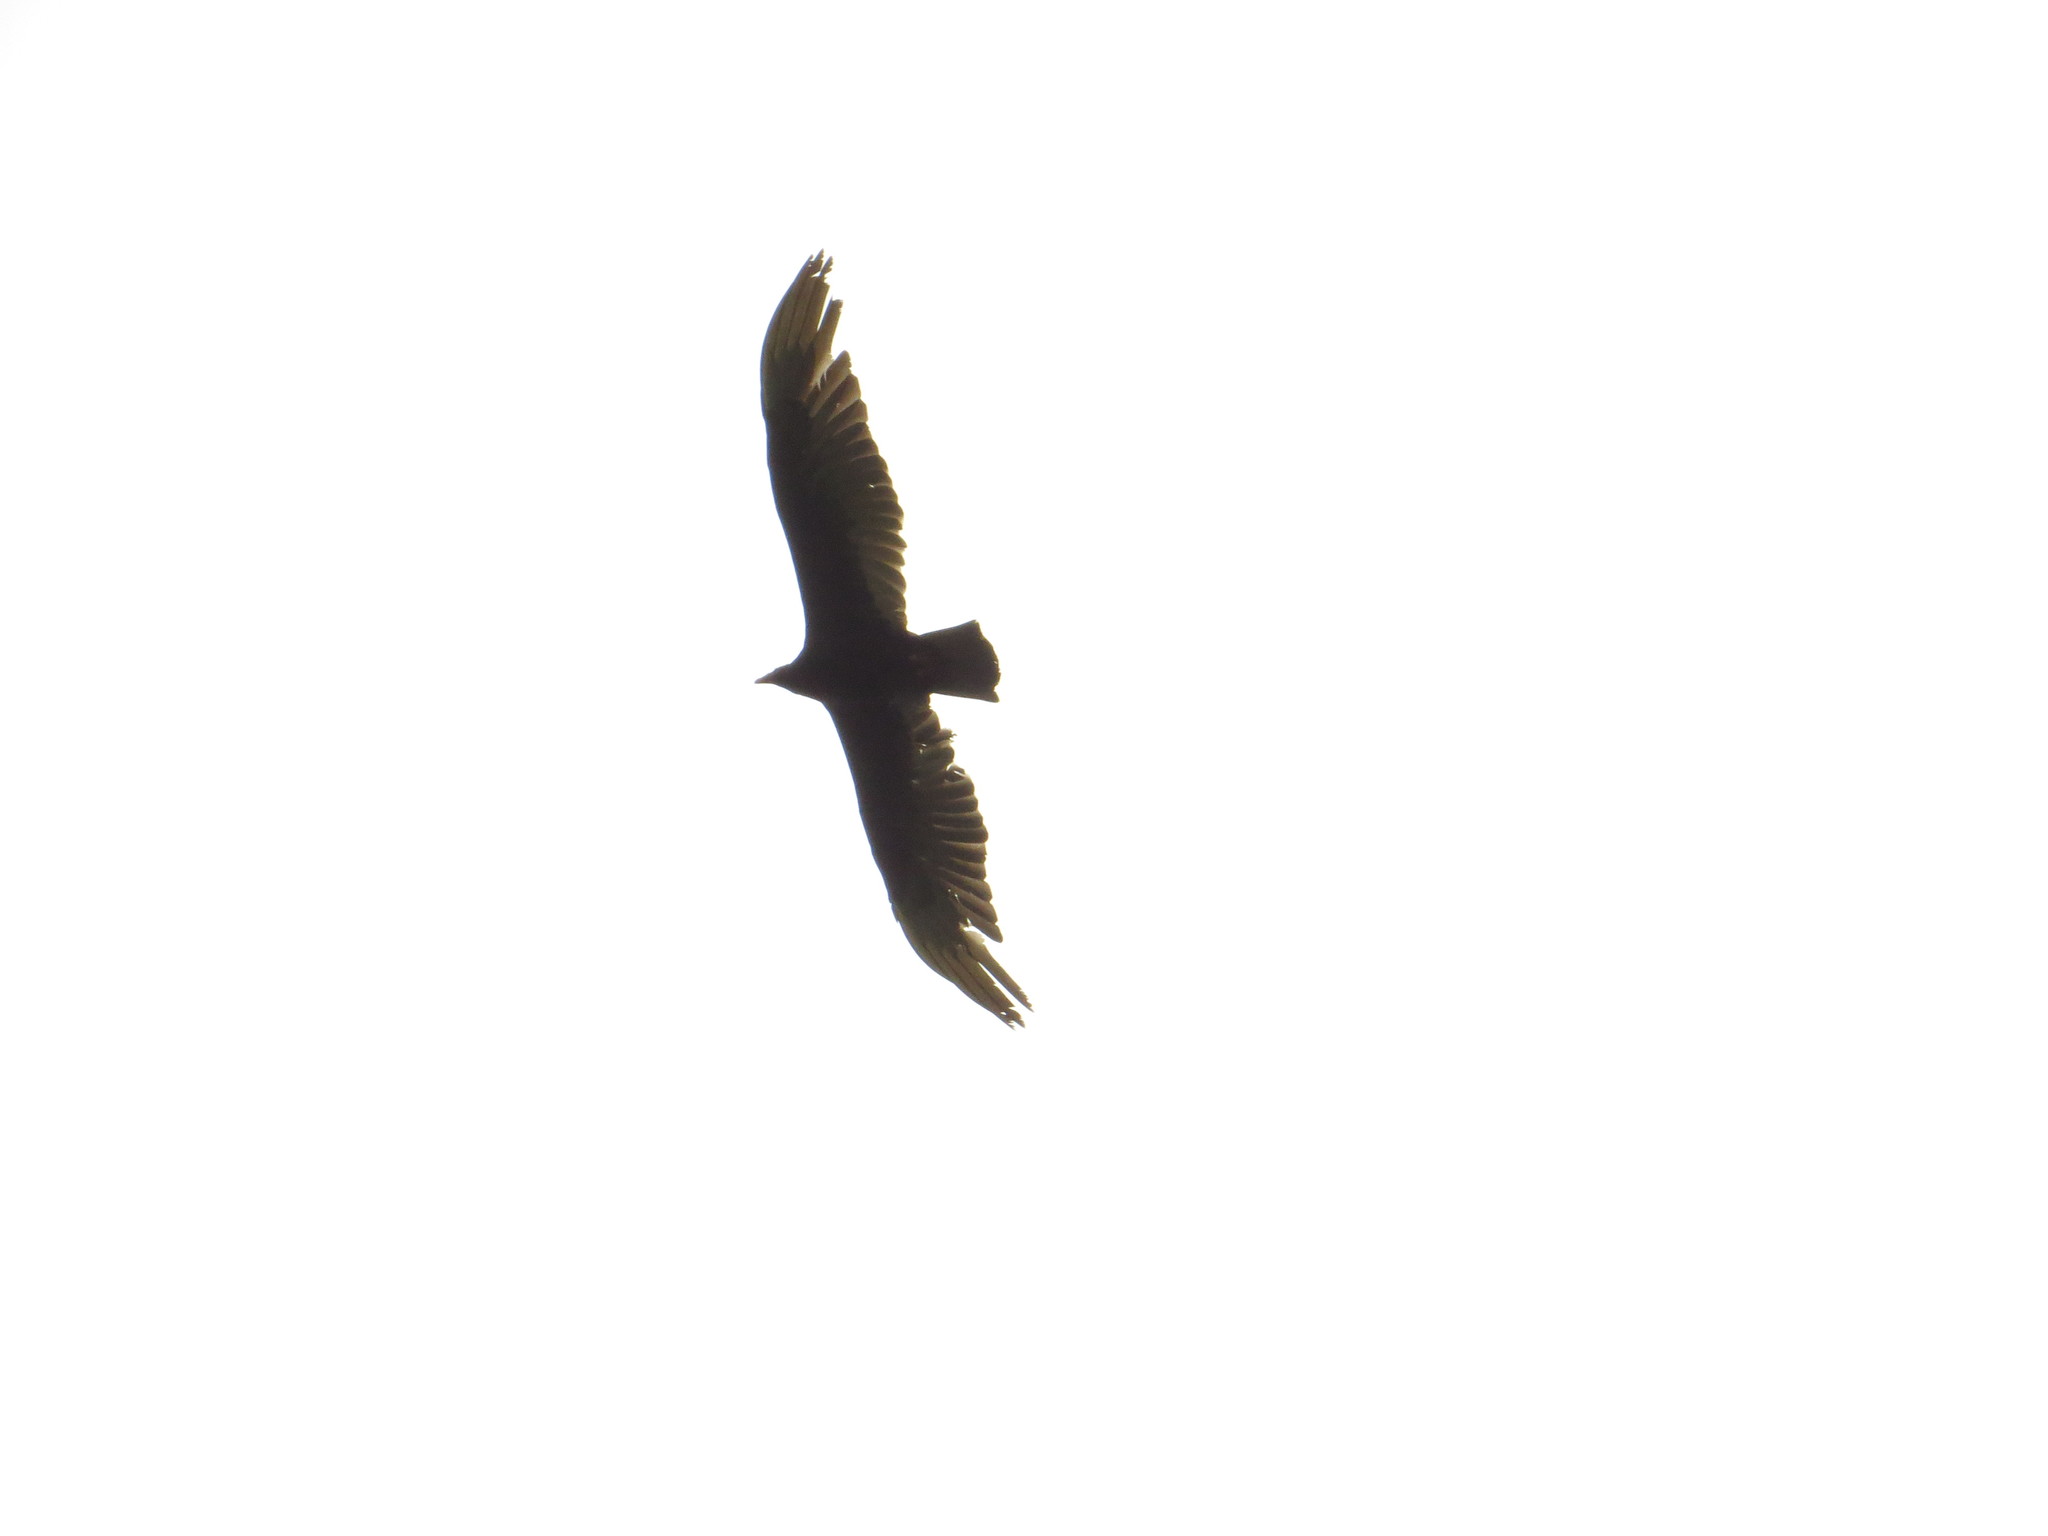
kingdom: Animalia
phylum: Chordata
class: Aves
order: Accipitriformes
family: Cathartidae
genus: Cathartes
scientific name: Cathartes aura
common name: Turkey vulture
